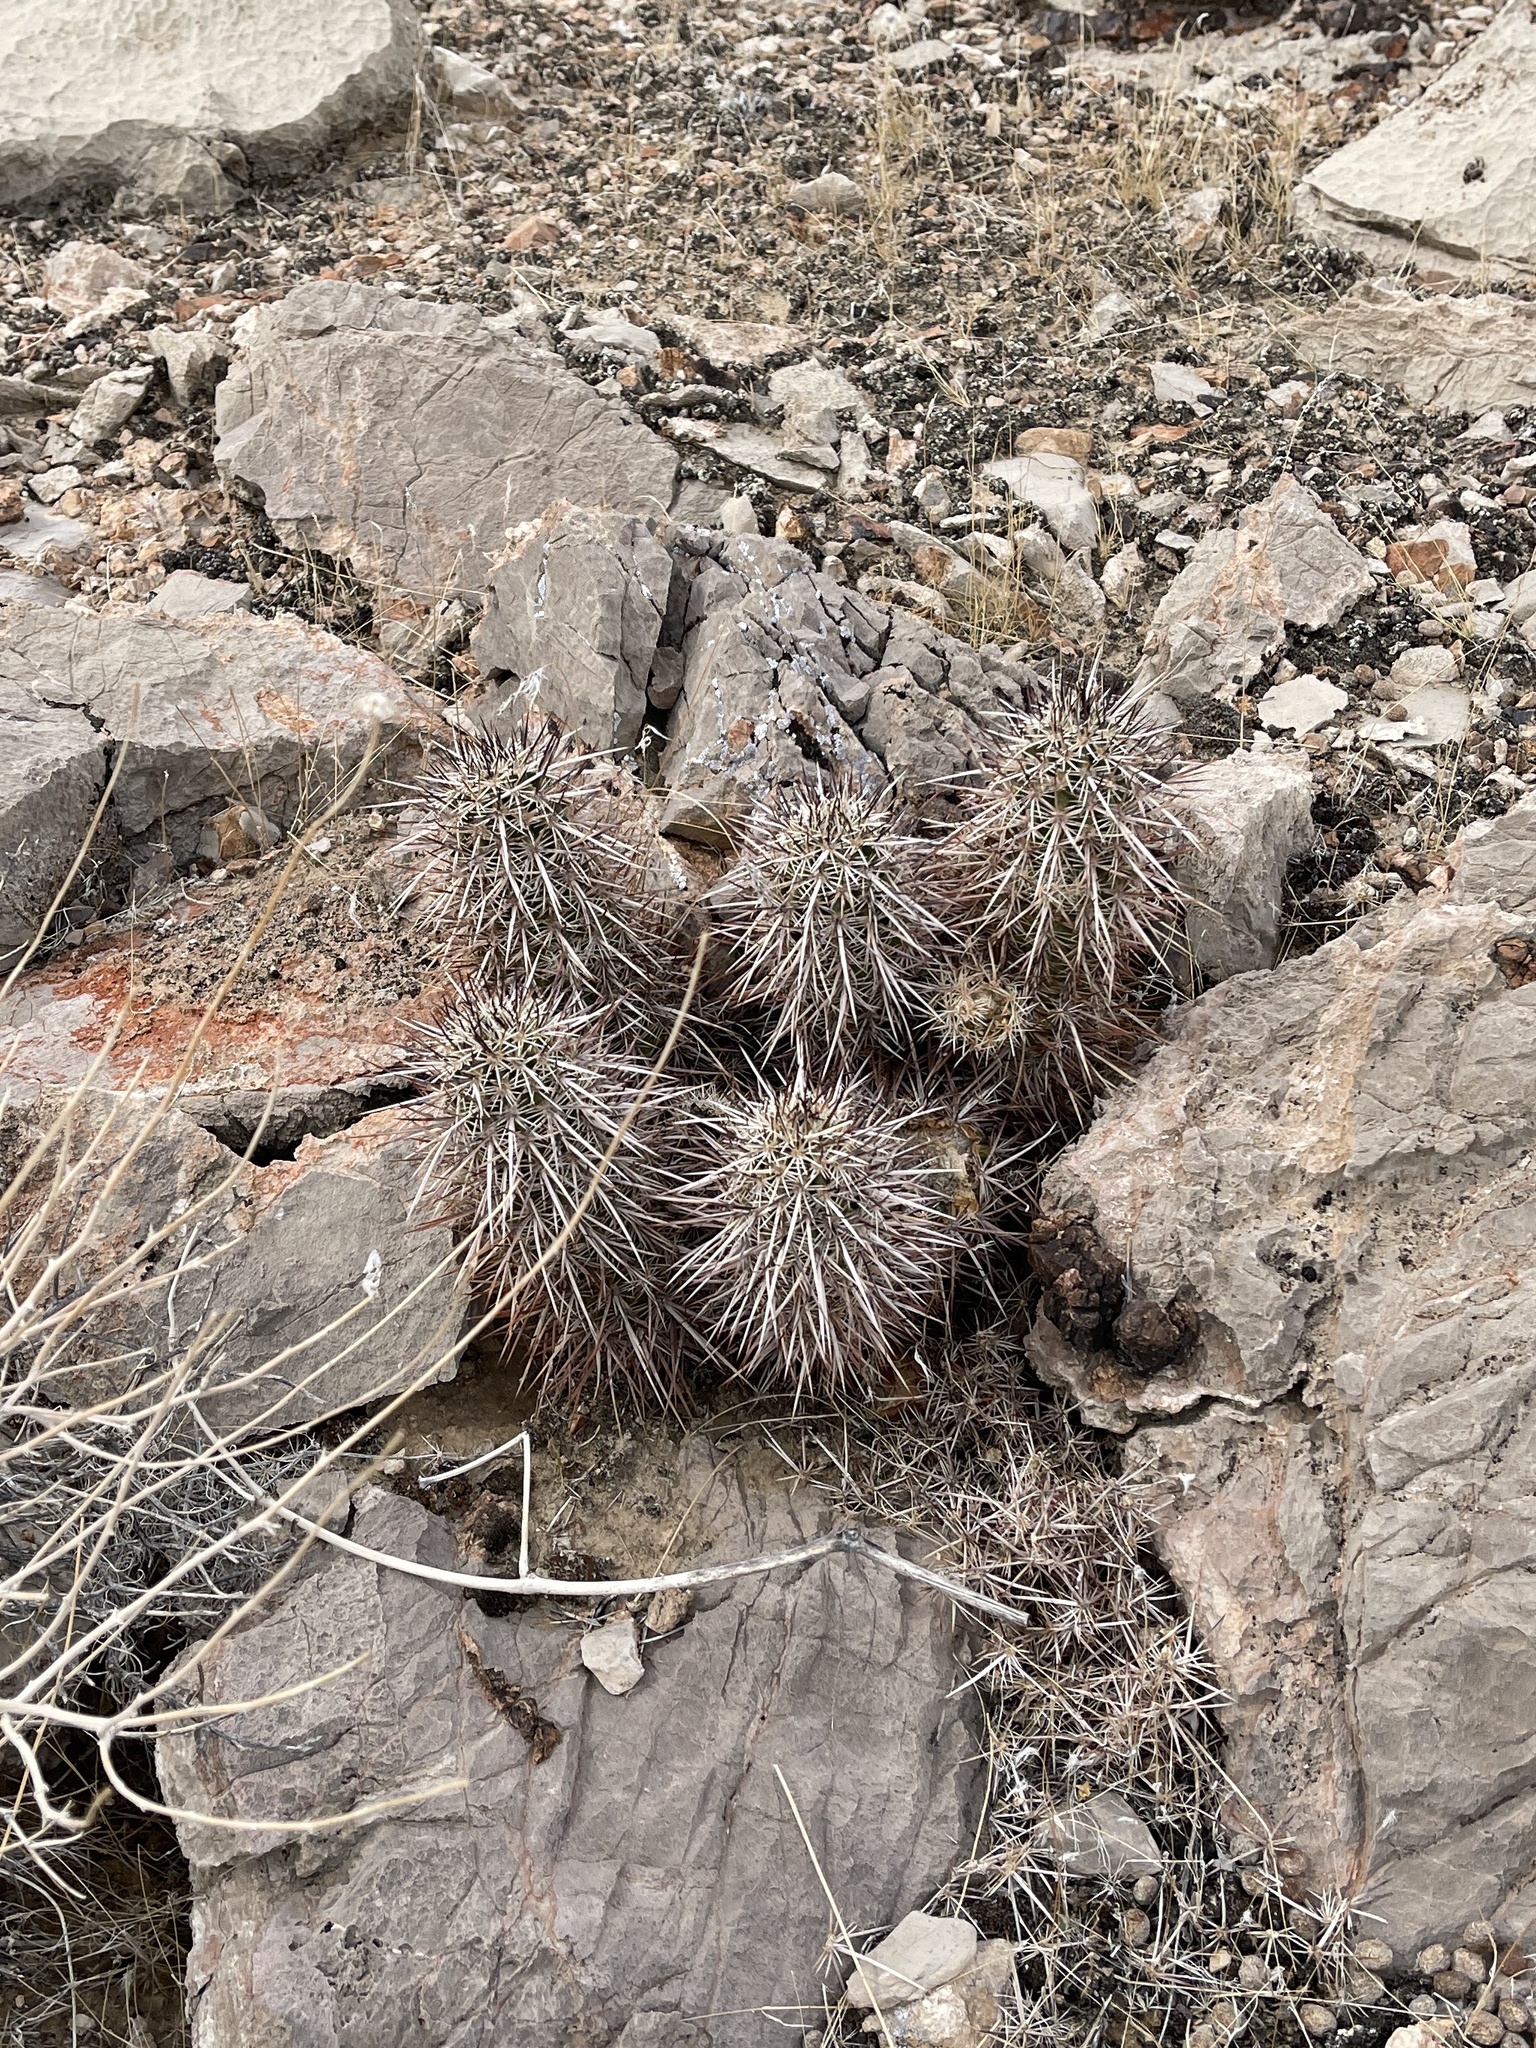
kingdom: Plantae
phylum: Tracheophyta
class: Magnoliopsida
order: Caryophyllales
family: Cactaceae
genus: Echinocereus
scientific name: Echinocereus engelmannii
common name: Engelmann's hedgehog cactus
